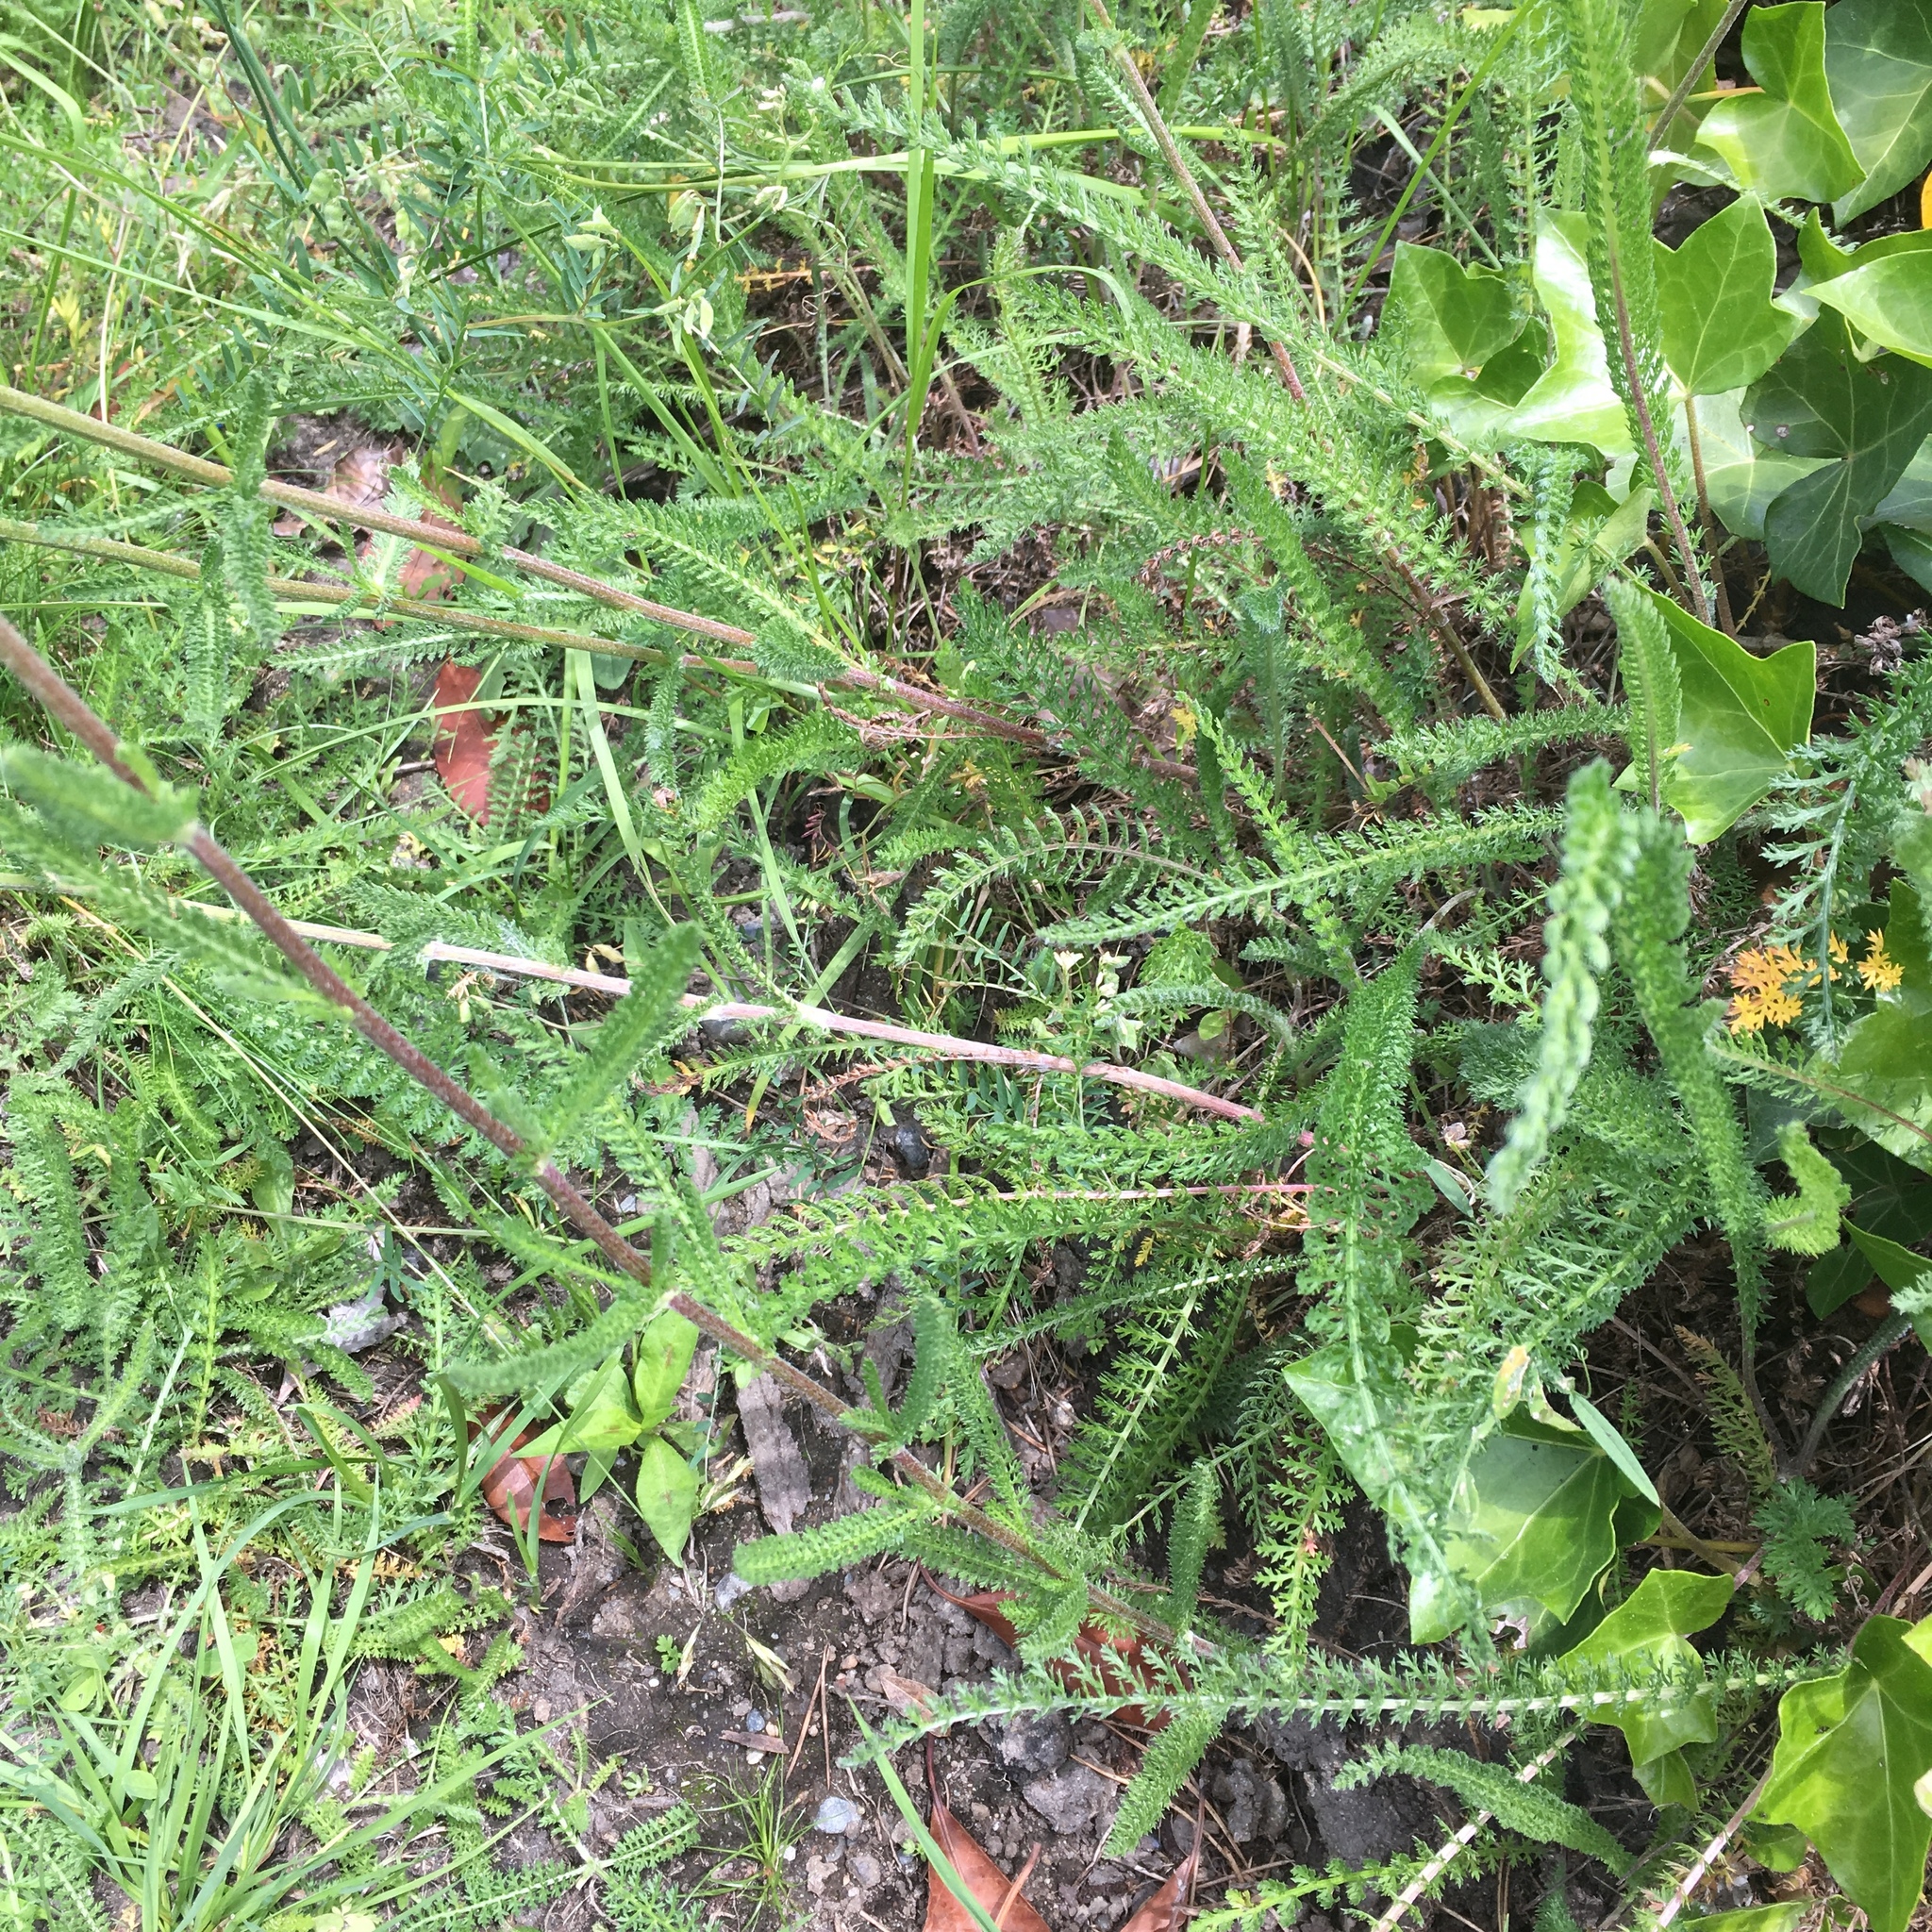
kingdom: Plantae
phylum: Tracheophyta
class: Magnoliopsida
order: Asterales
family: Asteraceae
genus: Achillea
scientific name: Achillea millefolium
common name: Yarrow
